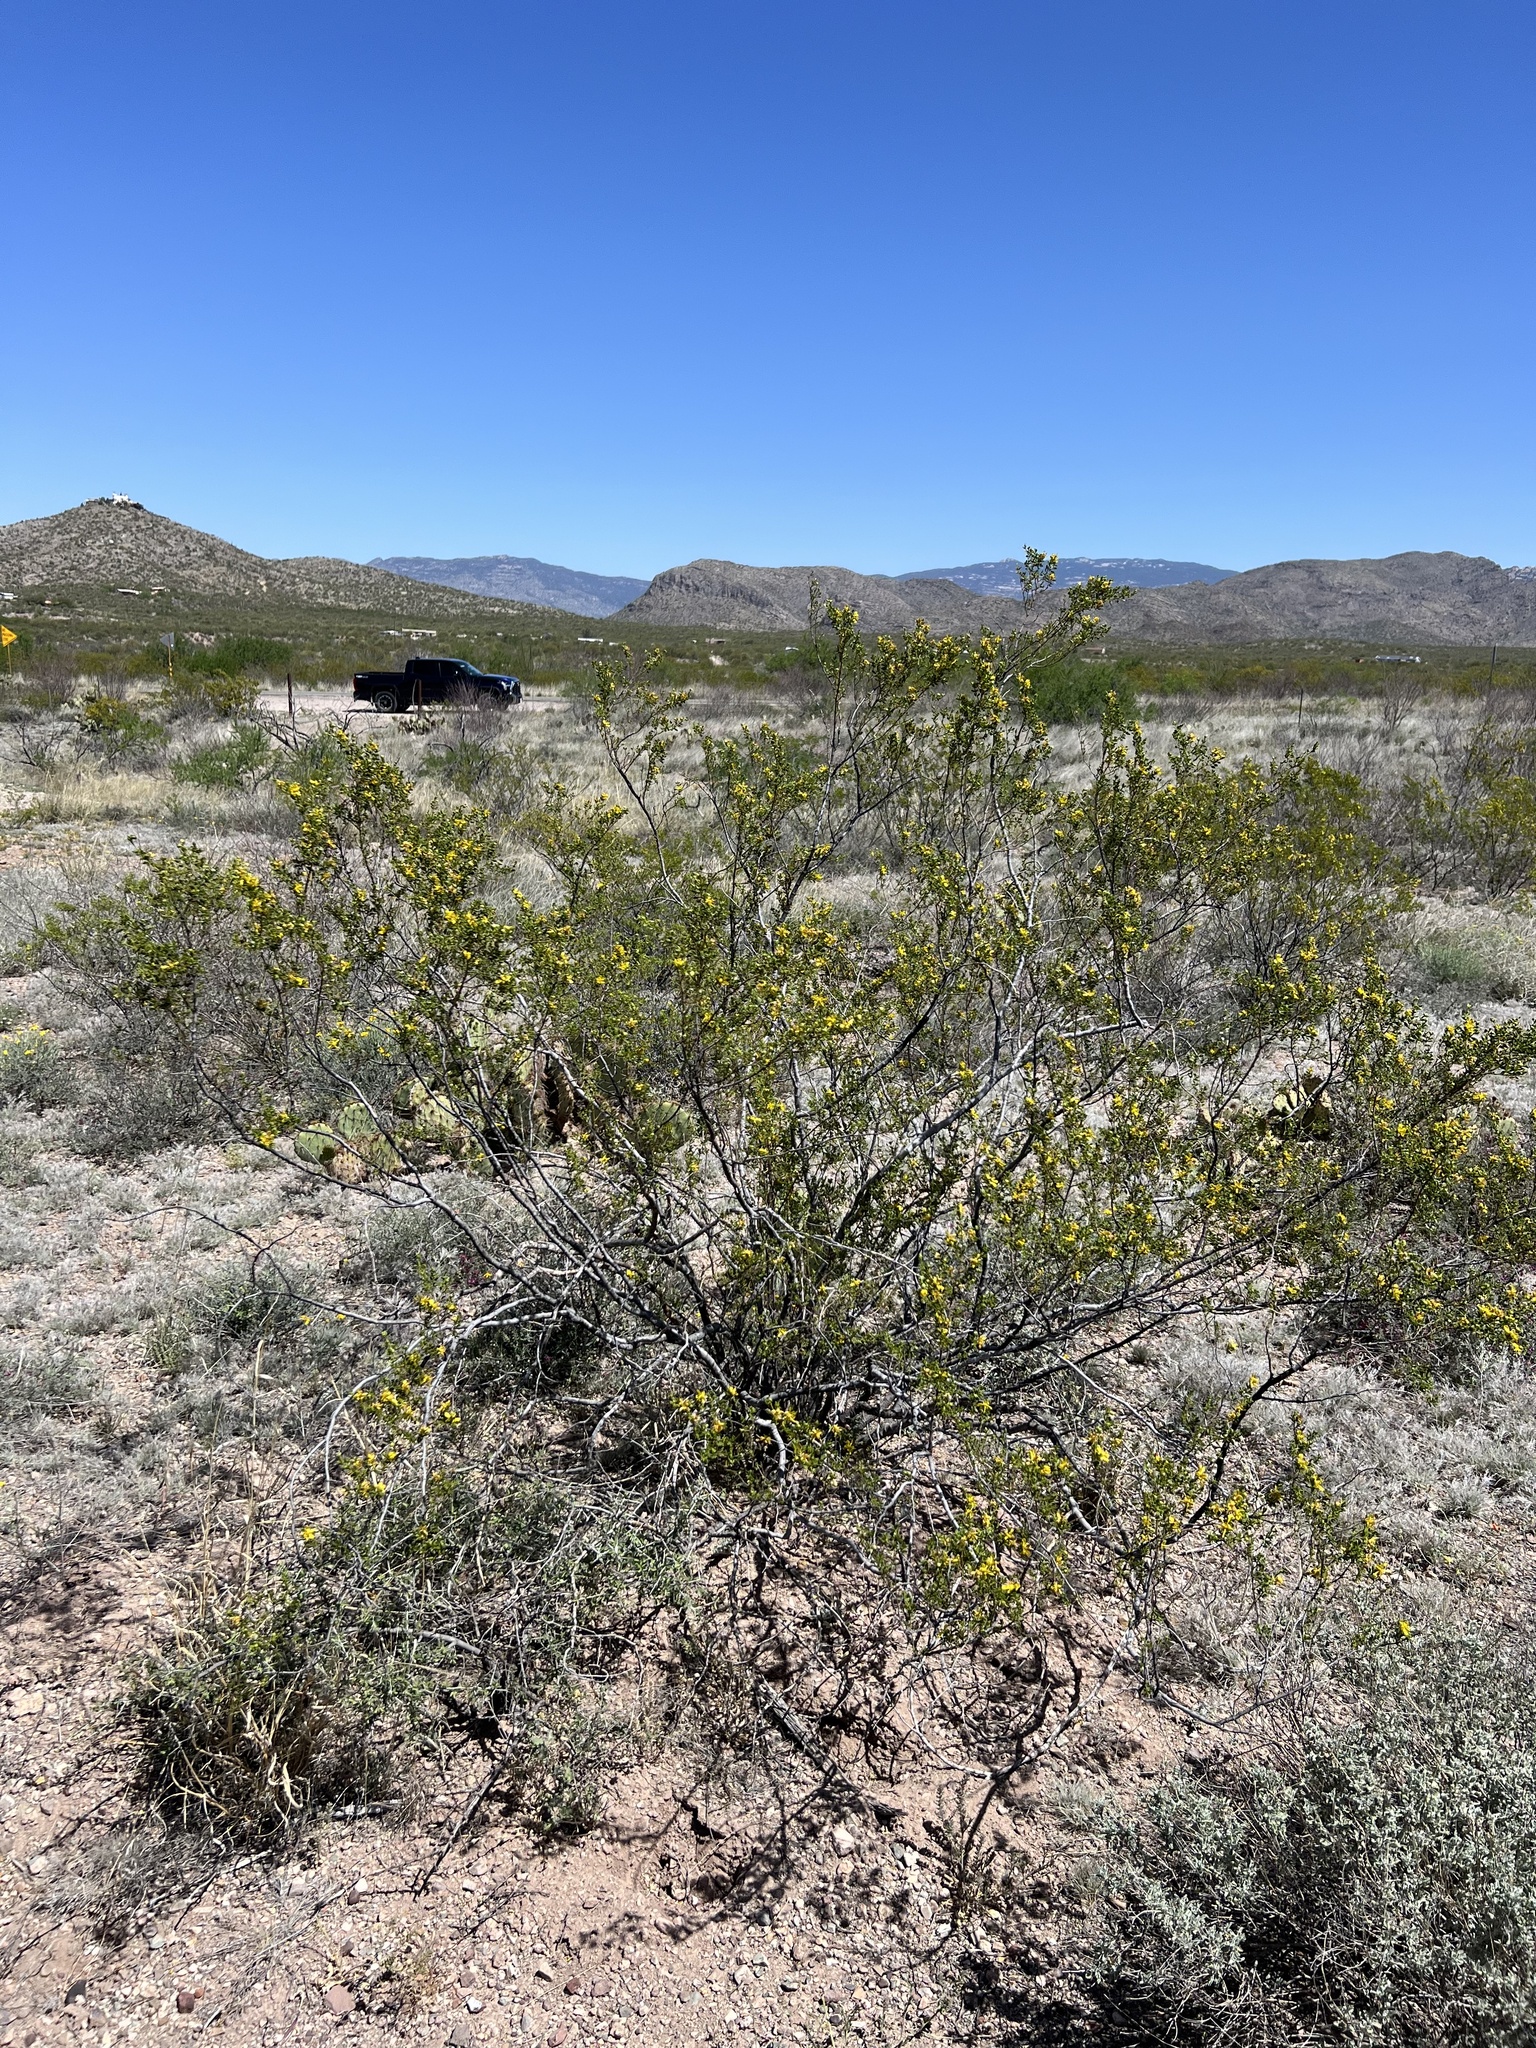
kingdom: Plantae
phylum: Tracheophyta
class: Magnoliopsida
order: Zygophyllales
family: Zygophyllaceae
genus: Larrea
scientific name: Larrea tridentata
